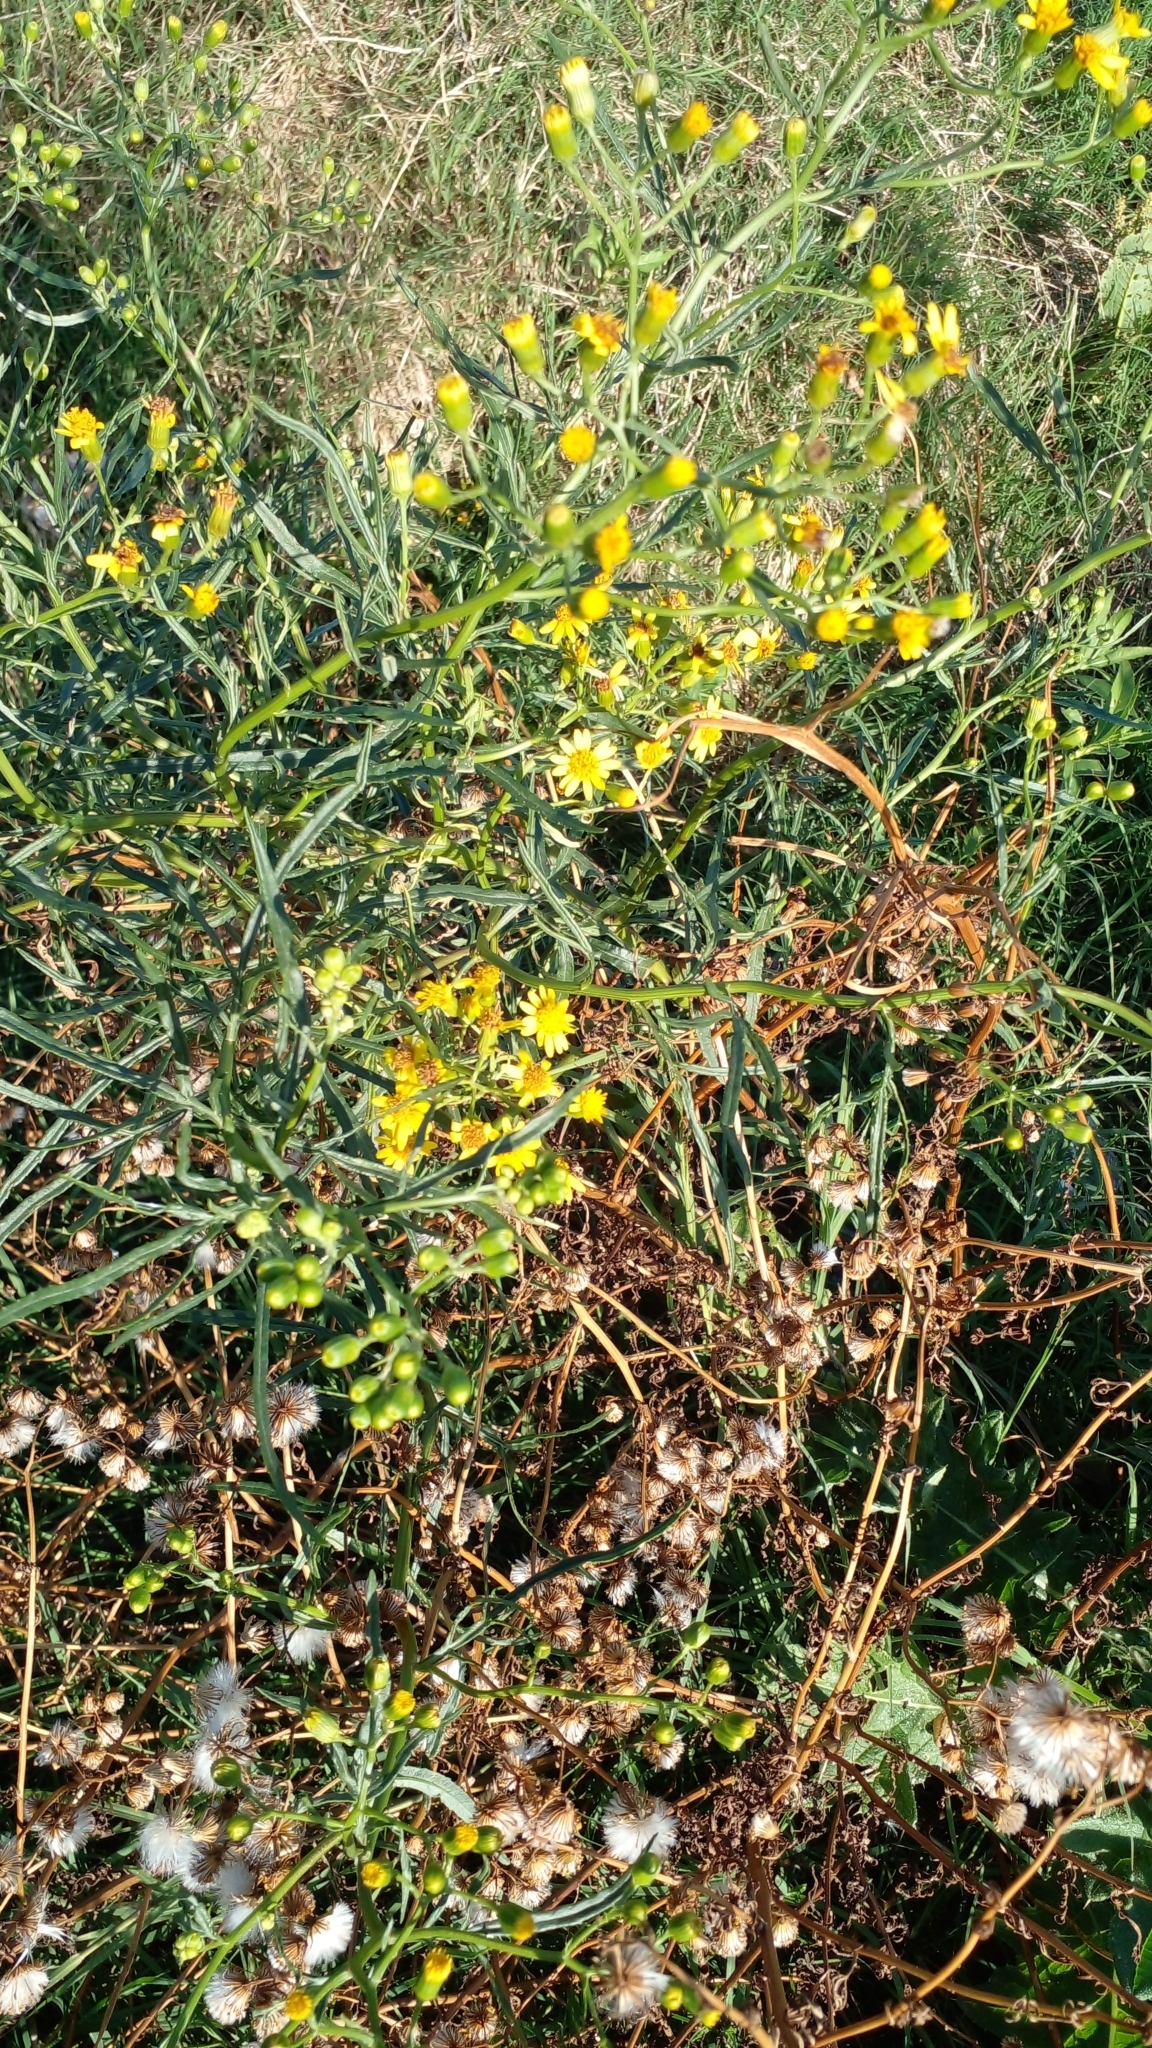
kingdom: Plantae
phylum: Tracheophyta
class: Magnoliopsida
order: Asterales
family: Asteraceae
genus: Senecio
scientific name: Senecio brasiliensis
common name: Hemp-leaf ragwort
